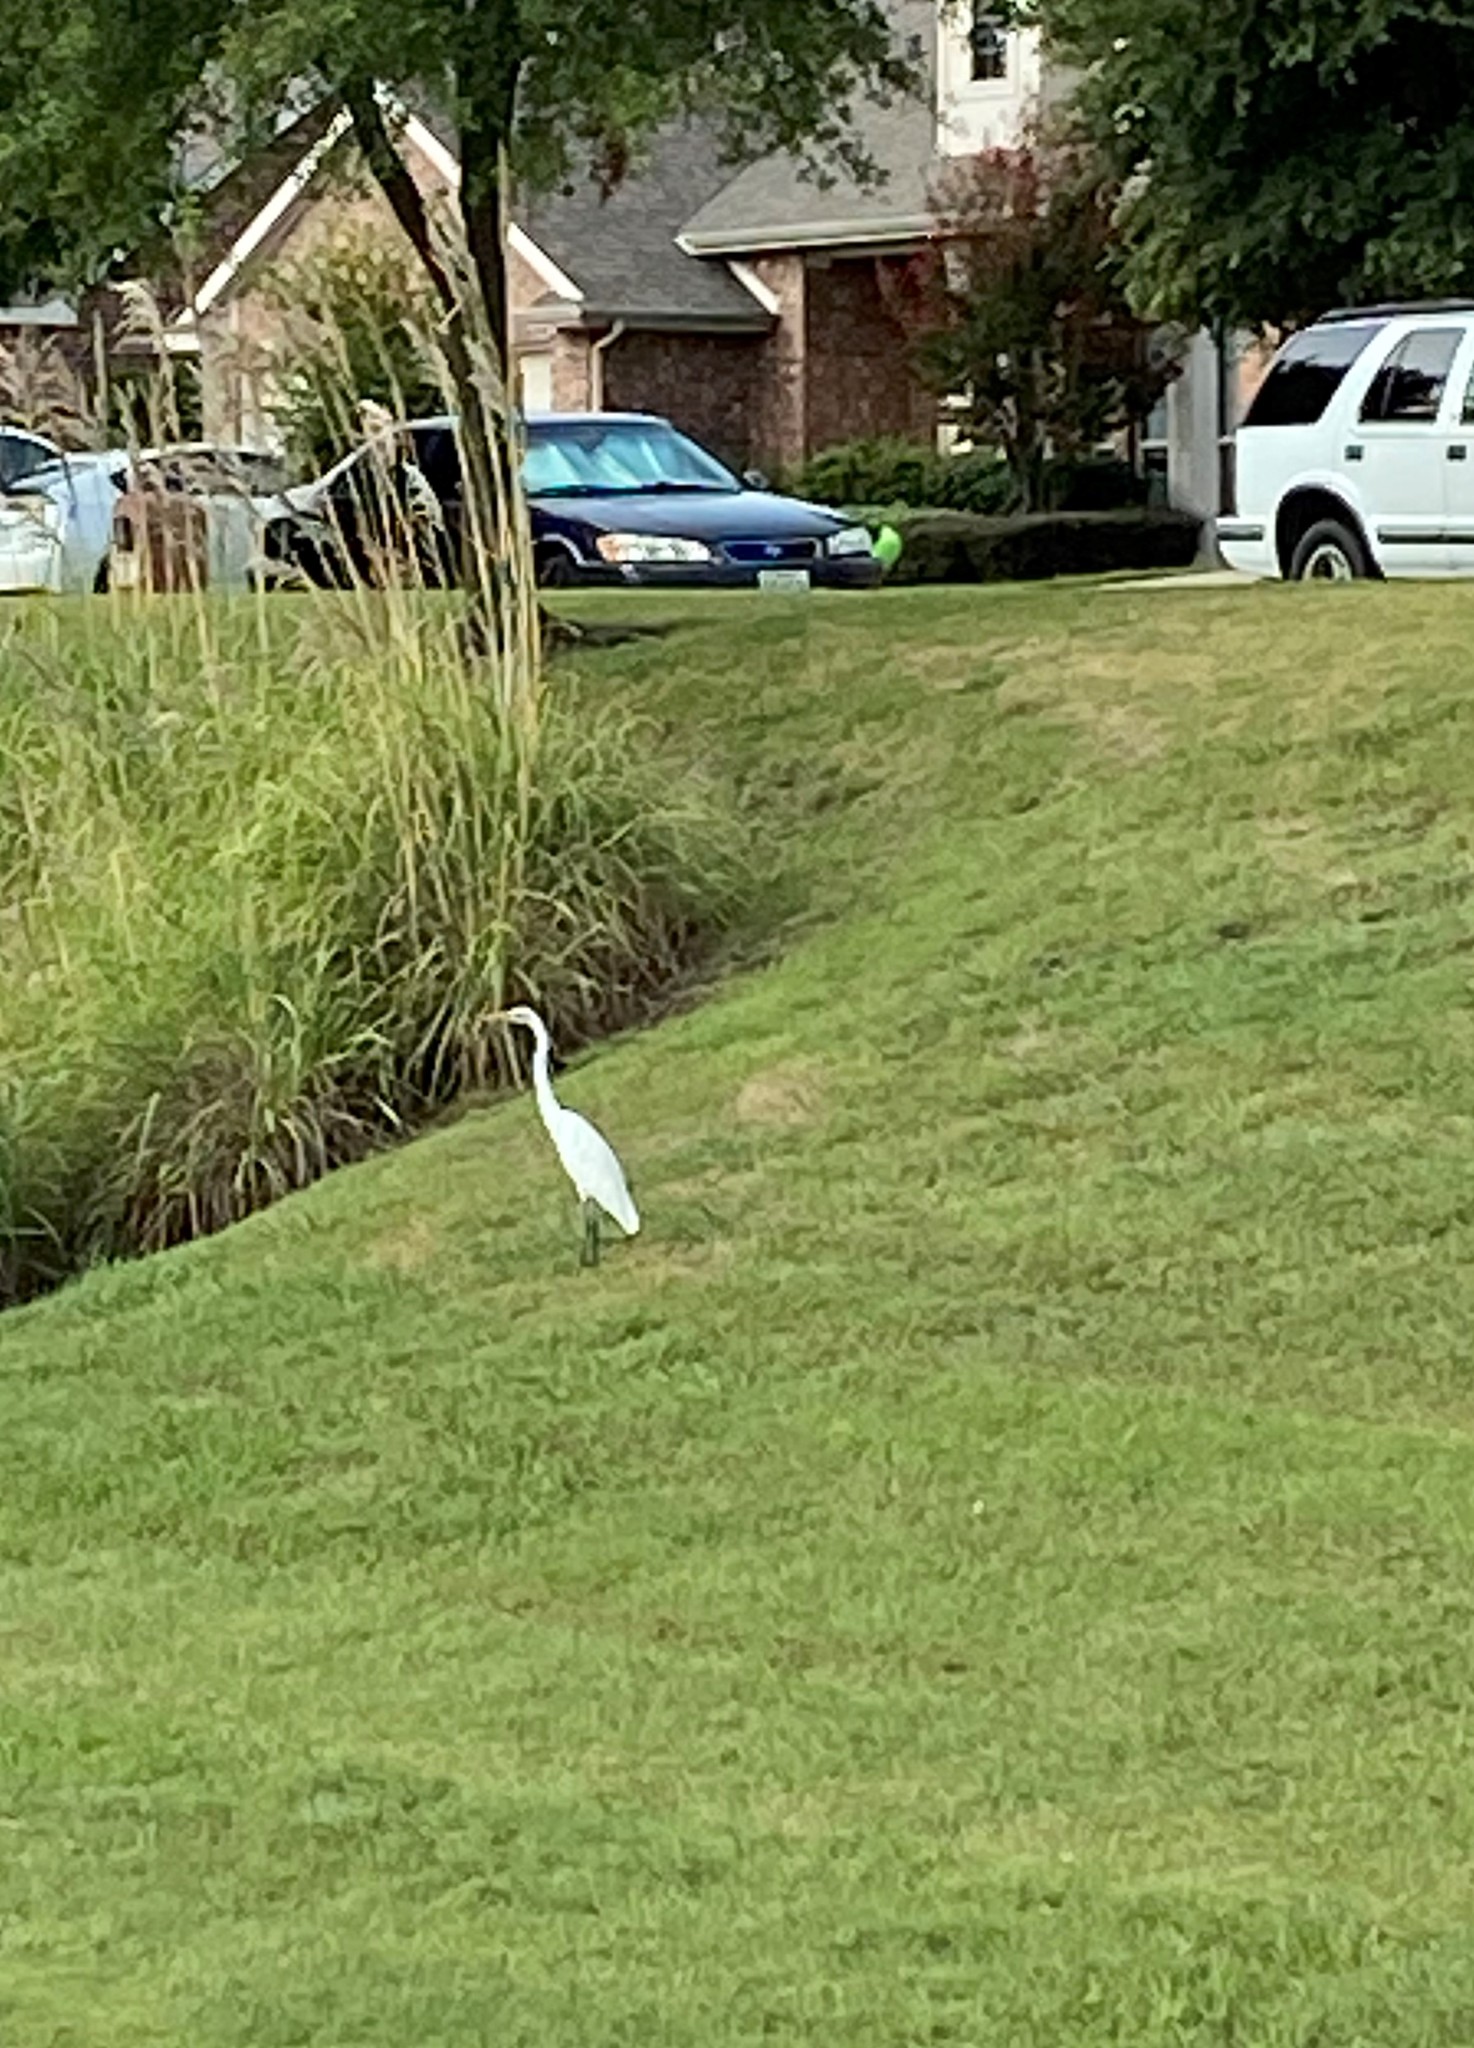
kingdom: Animalia
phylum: Chordata
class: Aves
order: Pelecaniformes
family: Ardeidae
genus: Ardea
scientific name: Ardea alba
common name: Great egret
